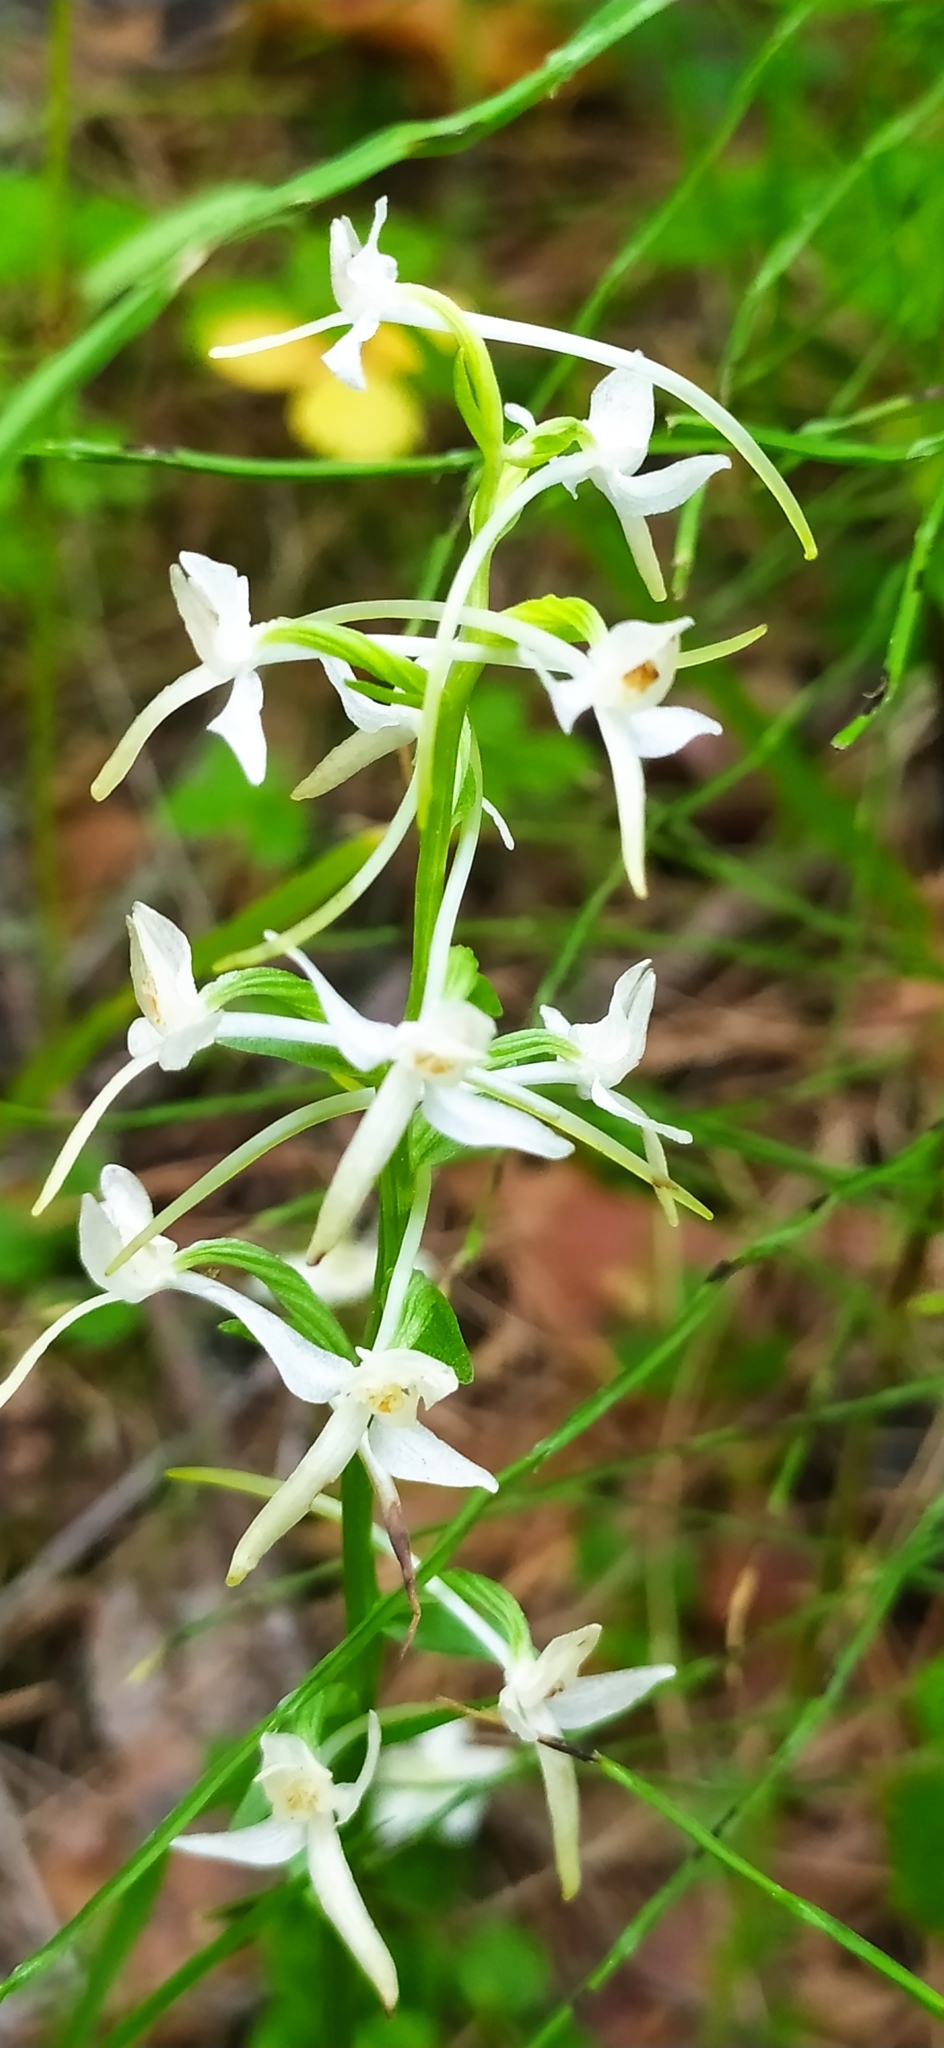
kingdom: Plantae
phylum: Tracheophyta
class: Liliopsida
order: Asparagales
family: Orchidaceae
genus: Platanthera
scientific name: Platanthera bifolia
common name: Lesser butterfly-orchid
